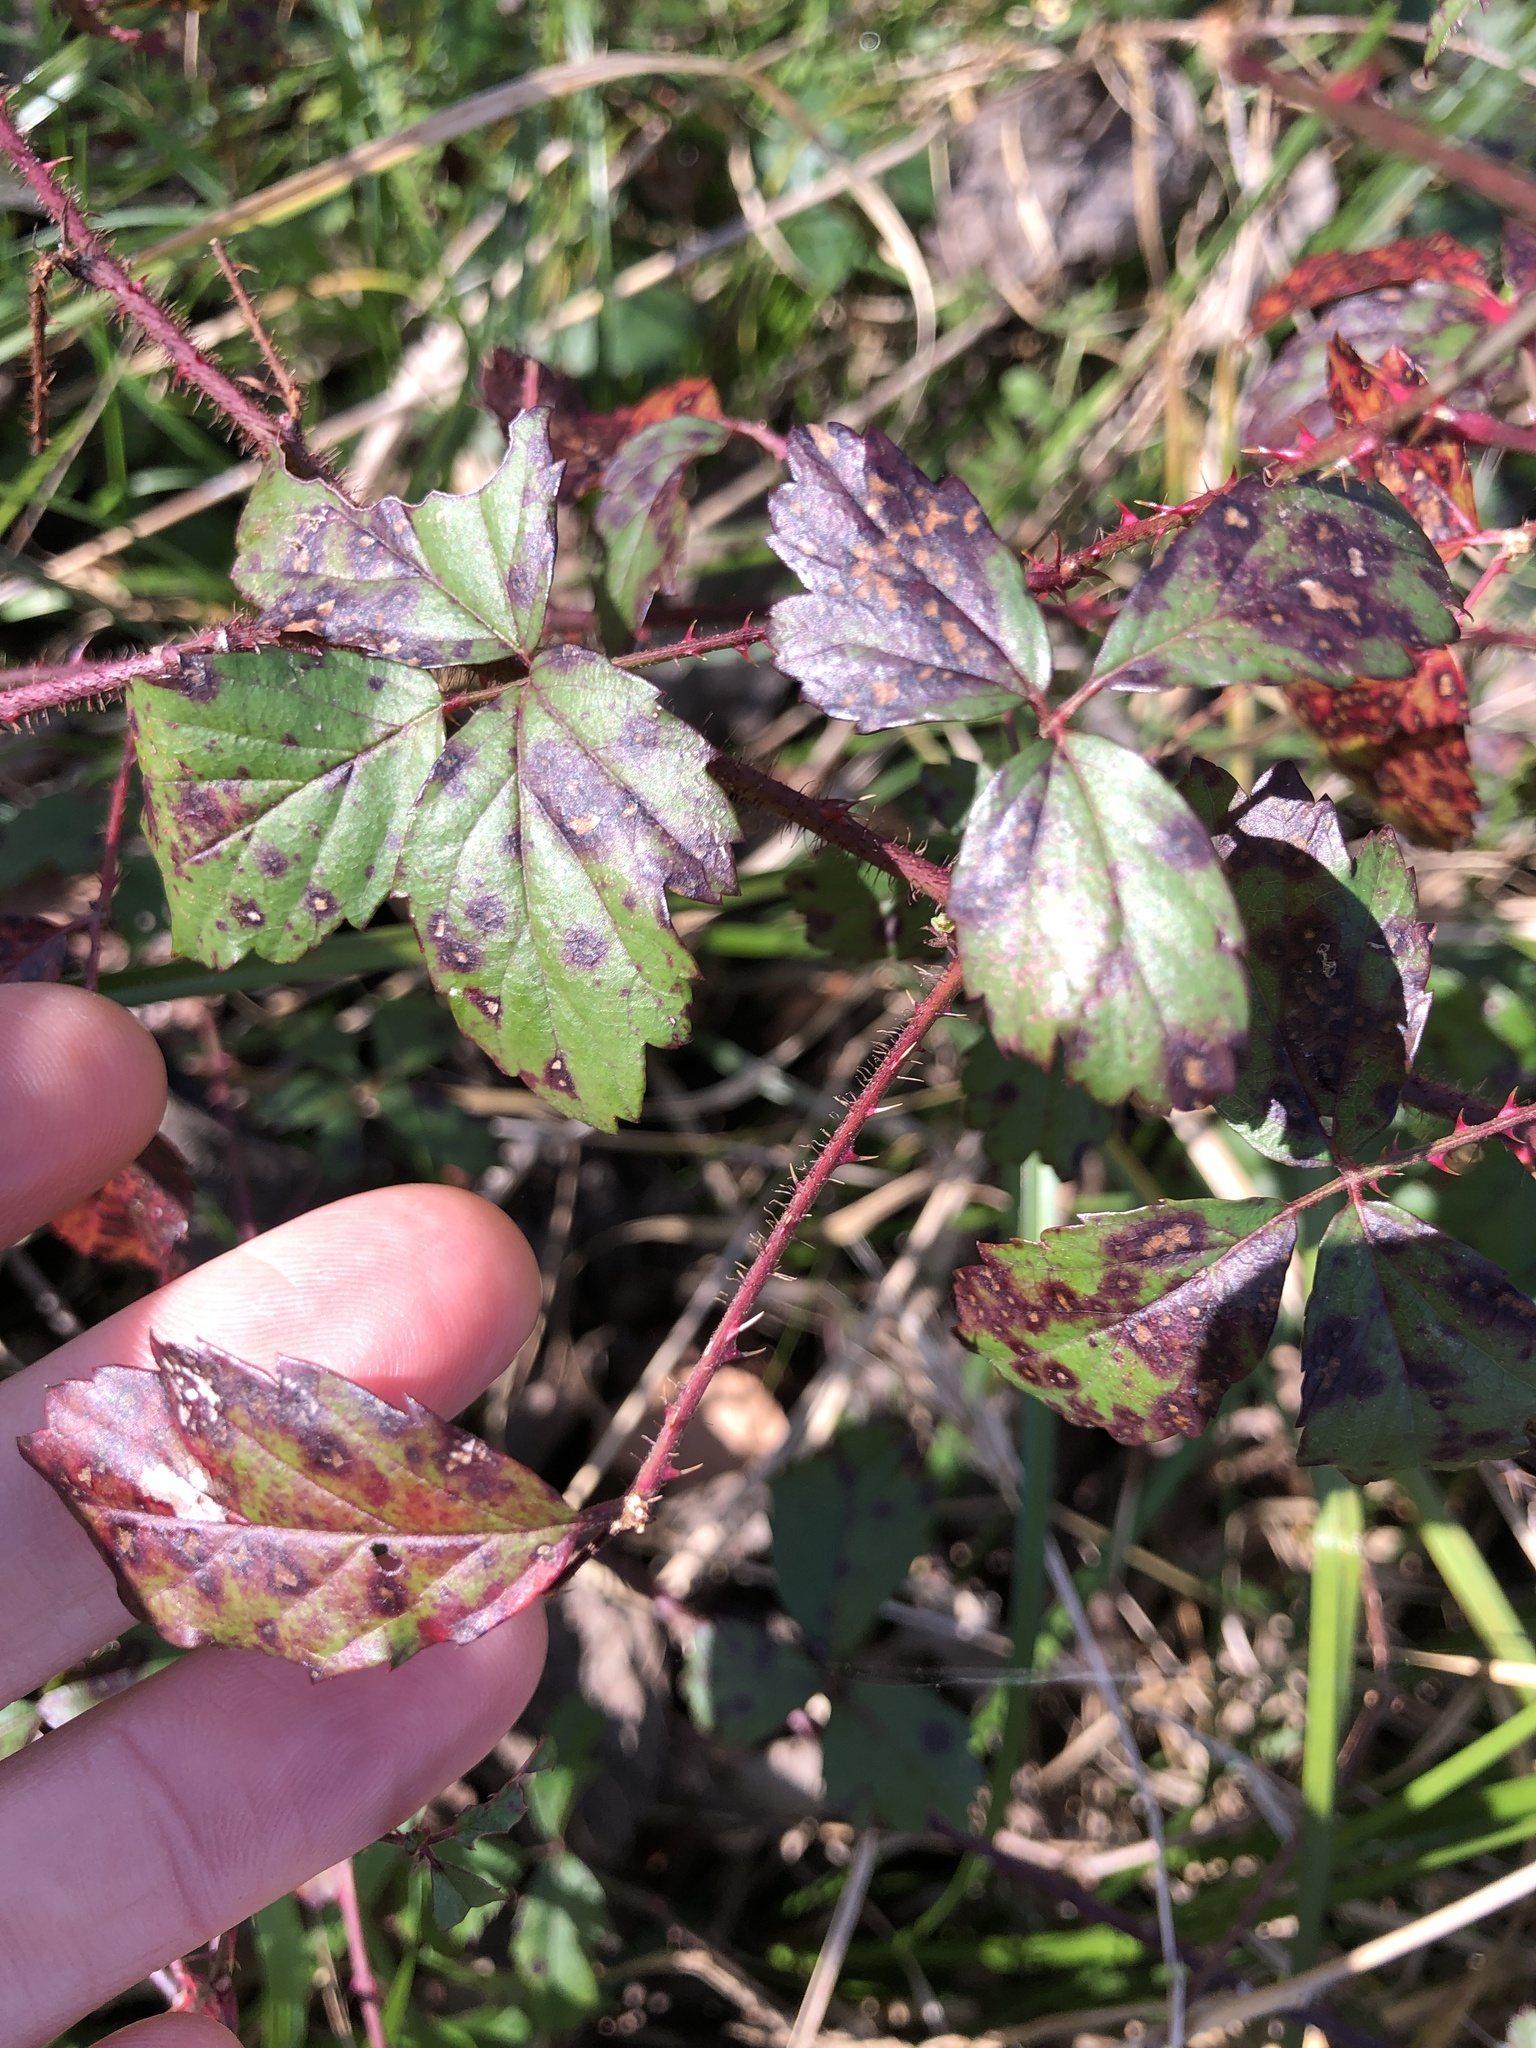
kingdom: Plantae
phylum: Tracheophyta
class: Magnoliopsida
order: Rosales
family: Rosaceae
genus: Rubus
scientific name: Rubus trivialis
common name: Southern dewberry
